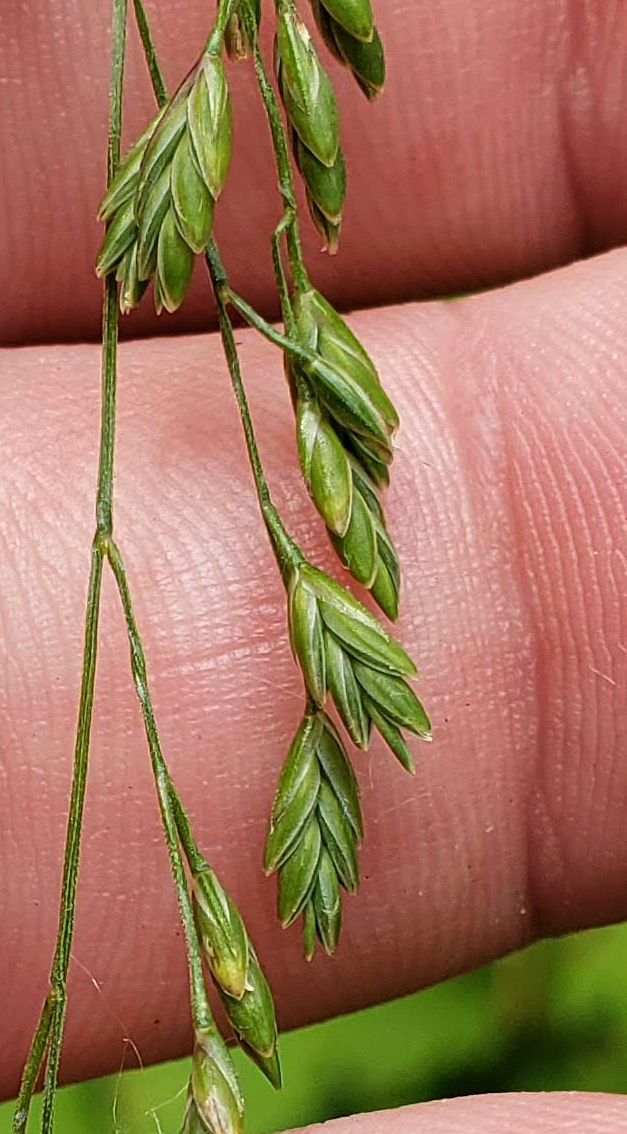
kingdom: Plantae
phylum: Tracheophyta
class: Liliopsida
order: Poales
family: Poaceae
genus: Glyceria
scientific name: Glyceria canadensis
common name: Canada mannagrass
